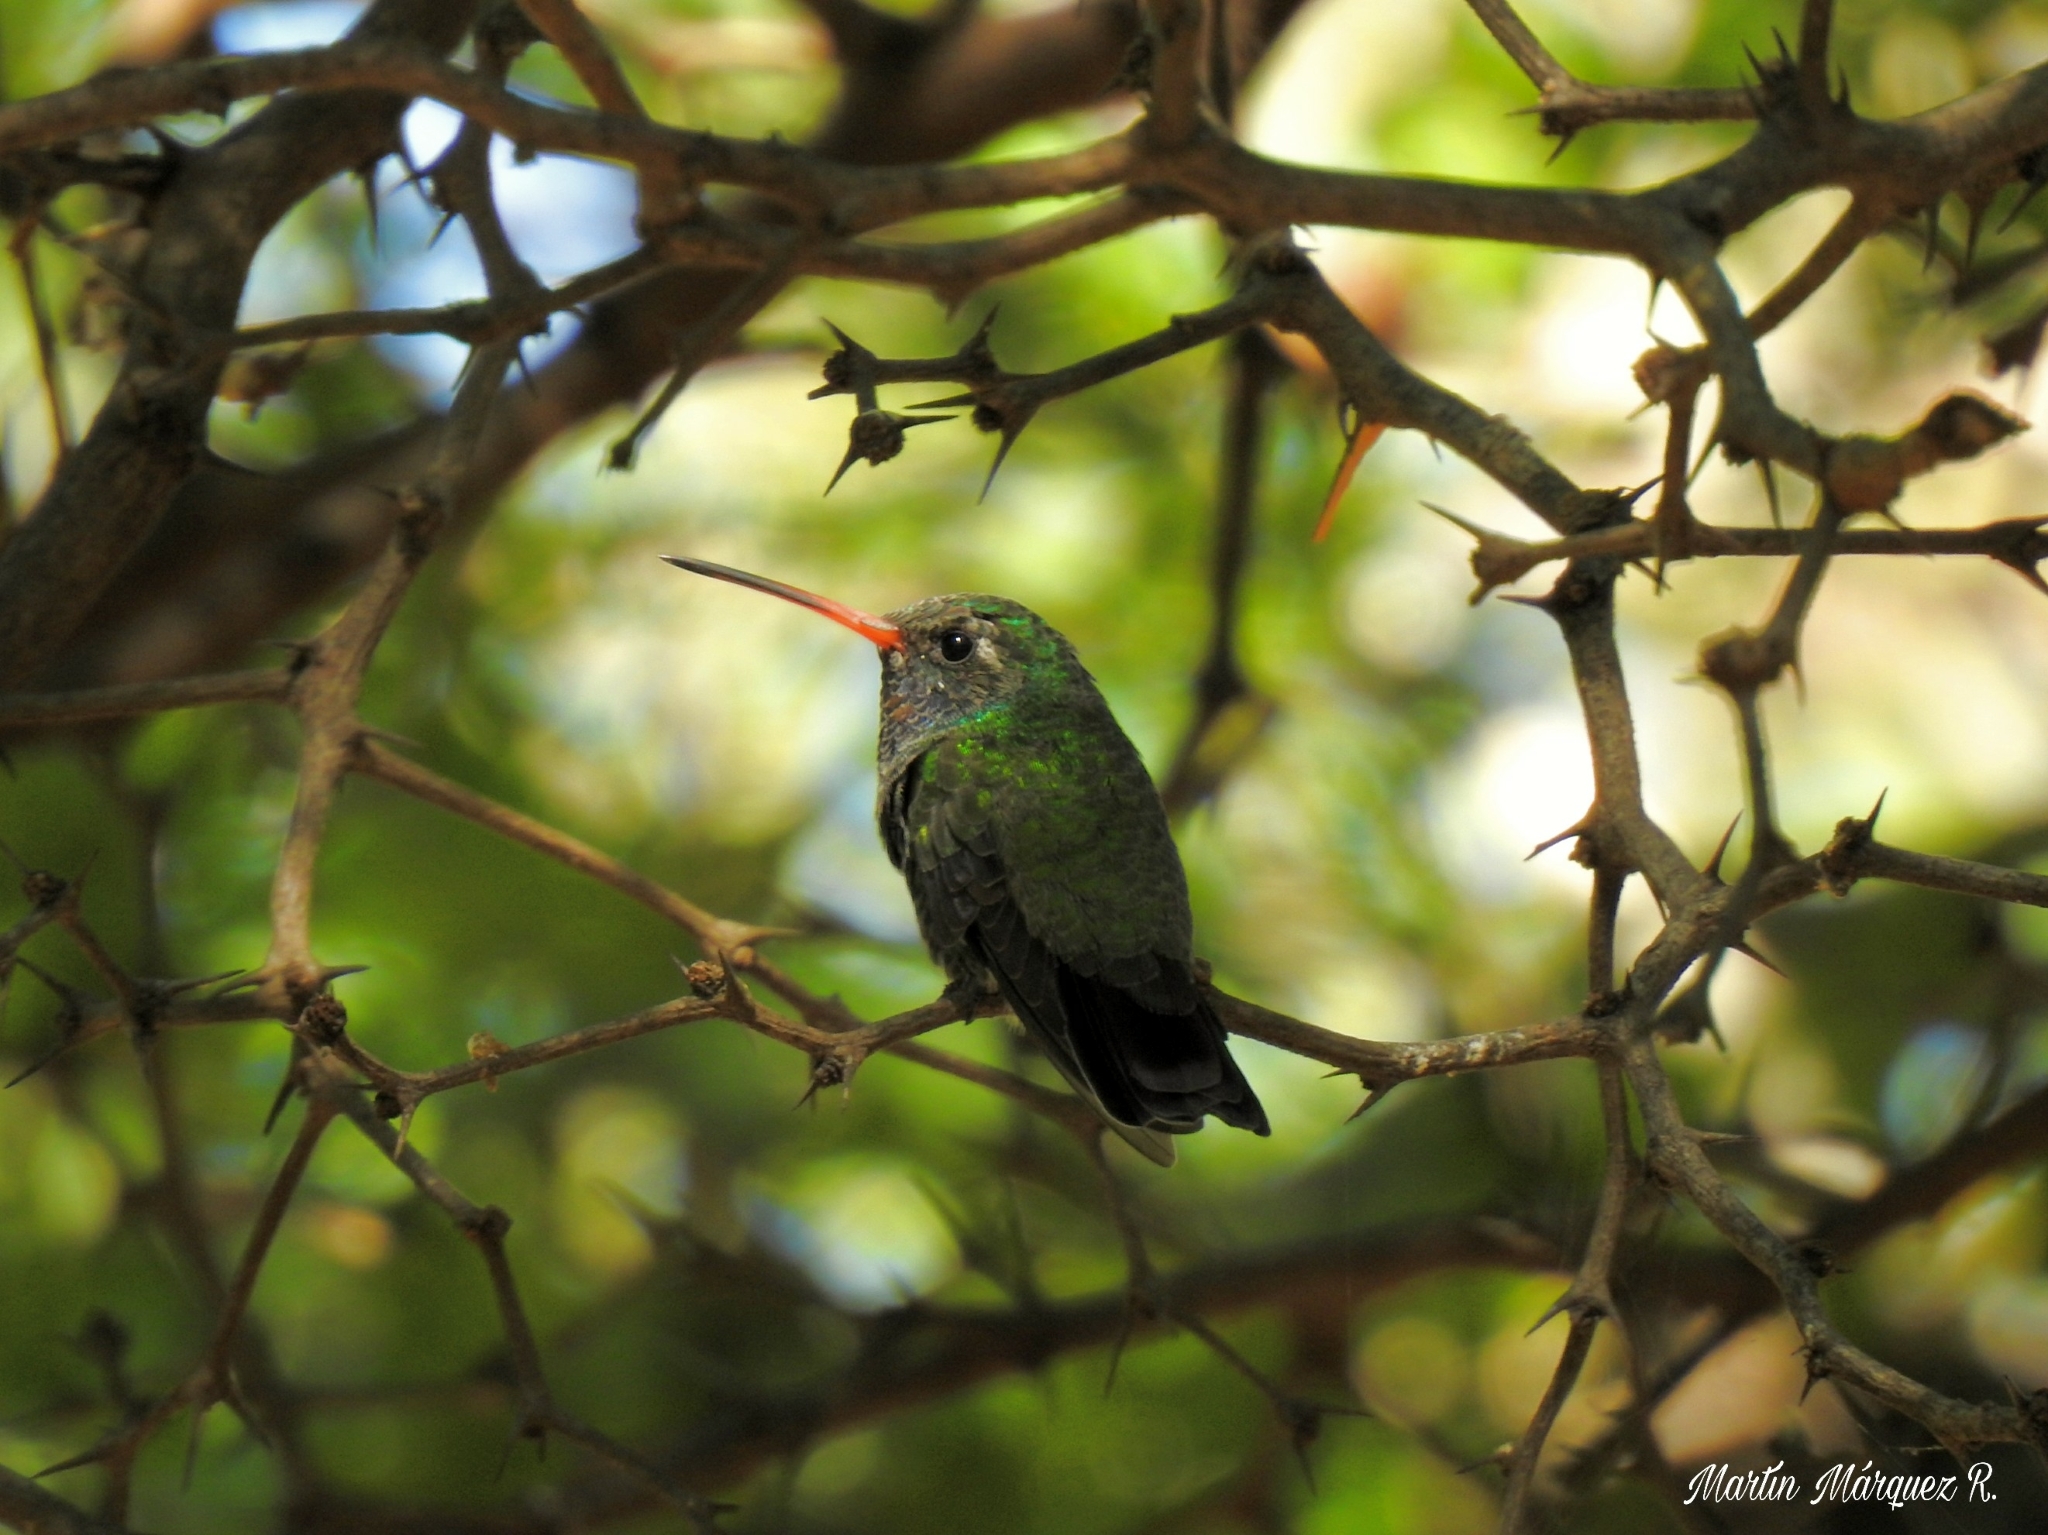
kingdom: Animalia
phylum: Chordata
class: Aves
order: Apodiformes
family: Trochilidae
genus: Cynanthus
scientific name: Cynanthus latirostris
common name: Broad-billed hummingbird
